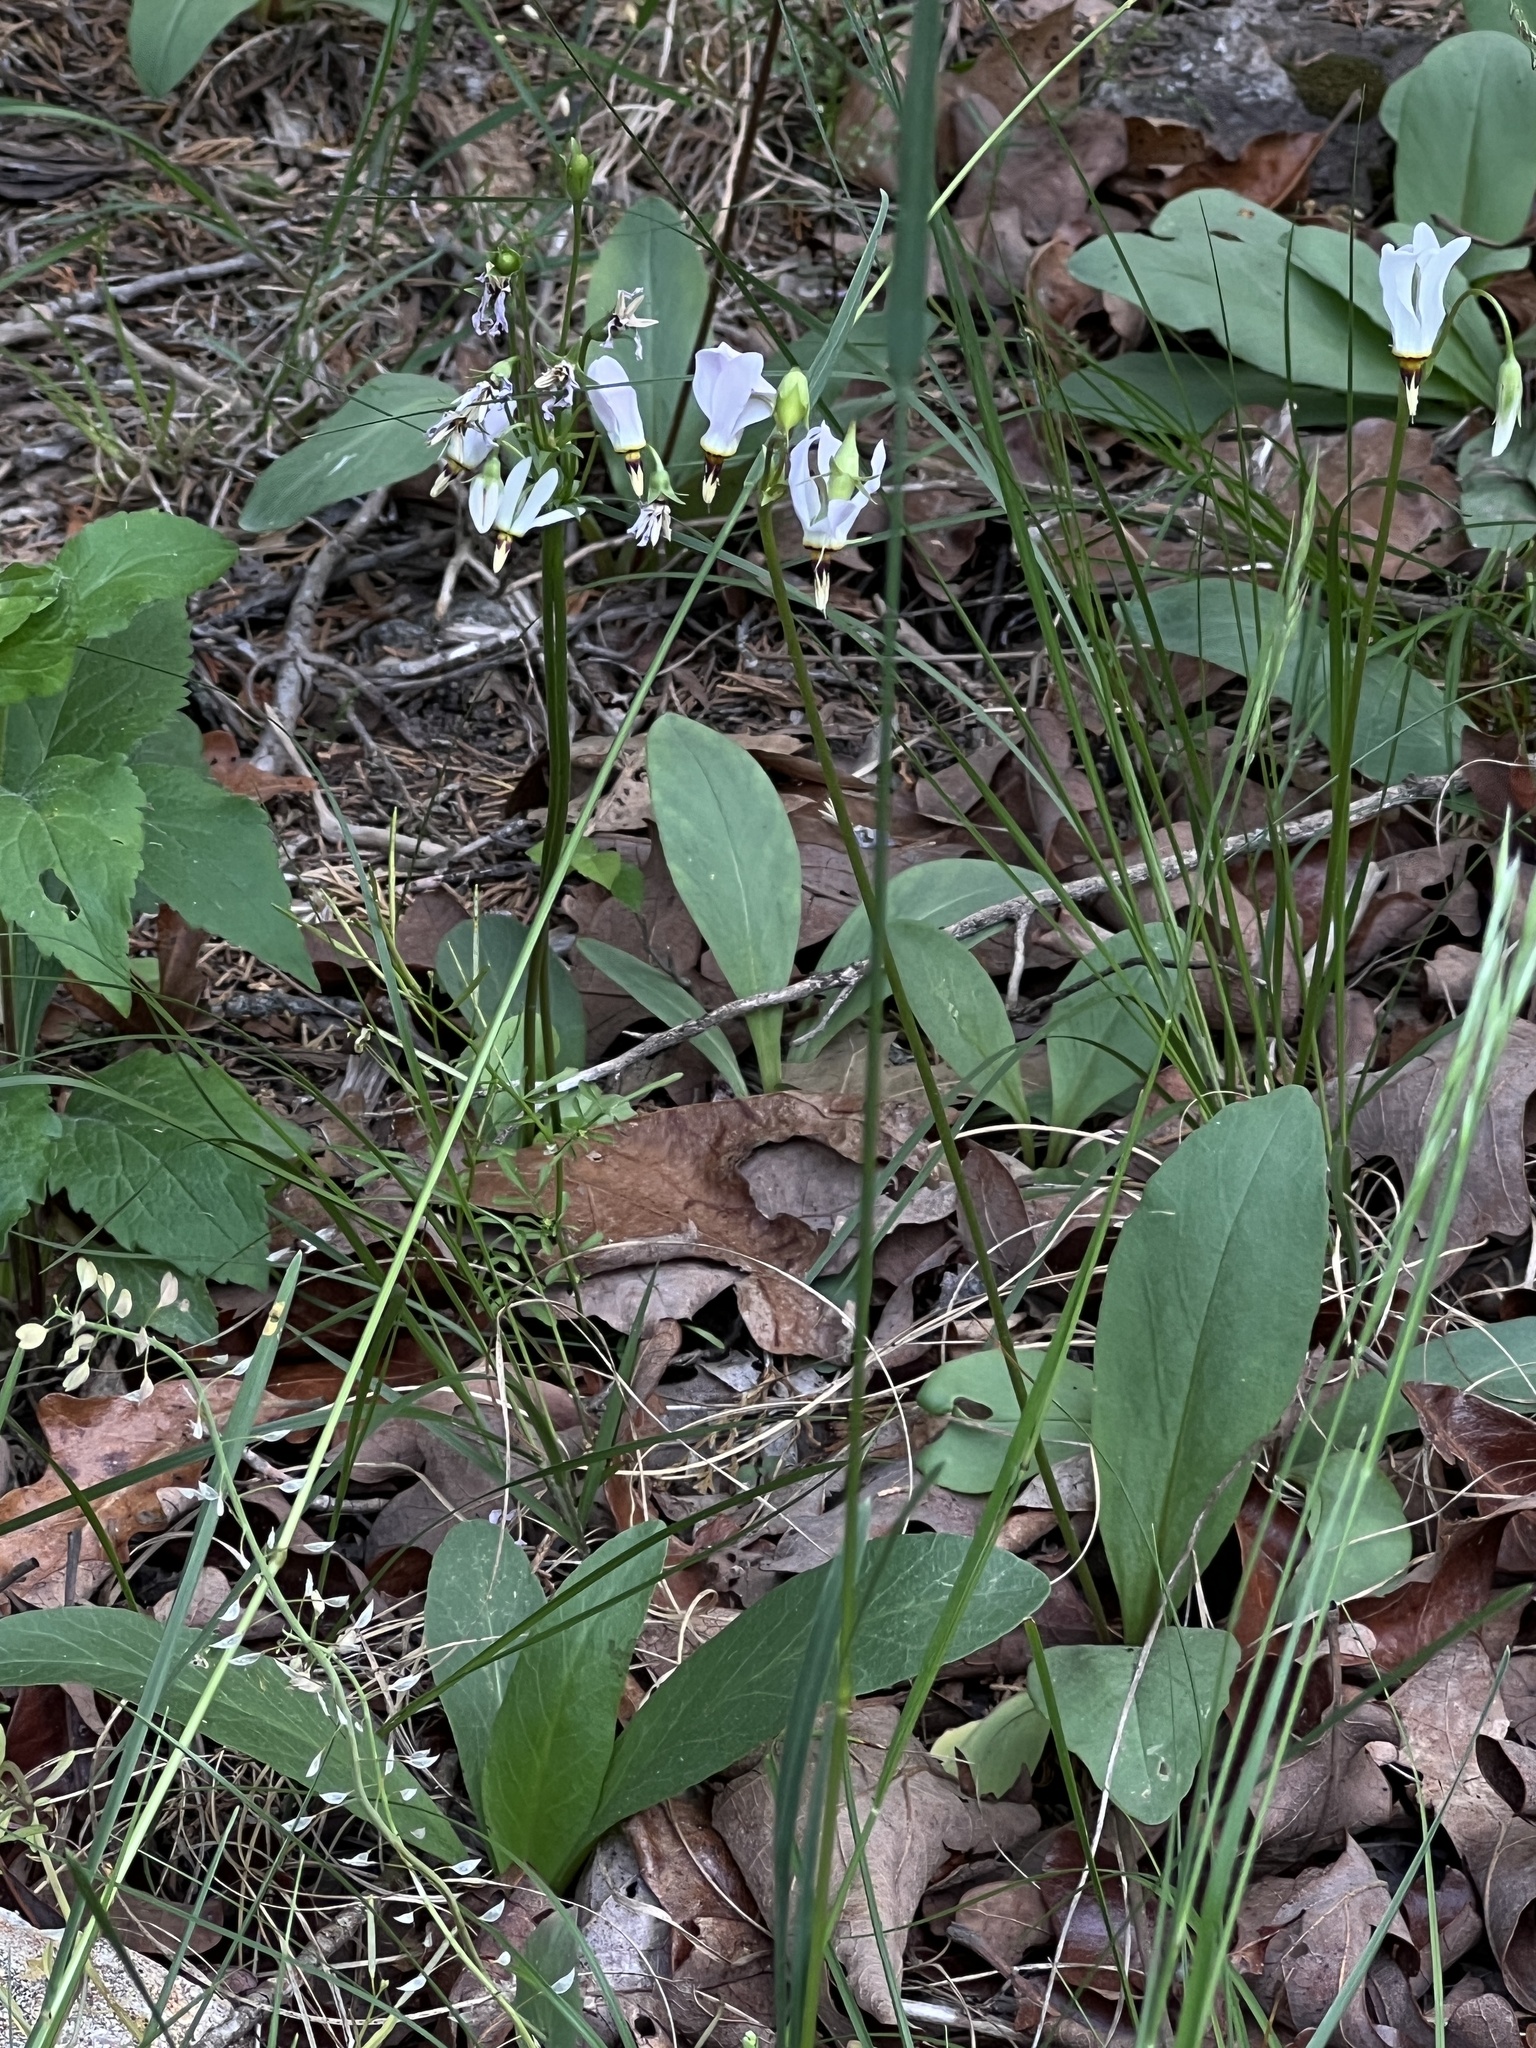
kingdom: Plantae
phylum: Tracheophyta
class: Magnoliopsida
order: Ericales
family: Primulaceae
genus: Dodecatheon
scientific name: Dodecatheon meadia
